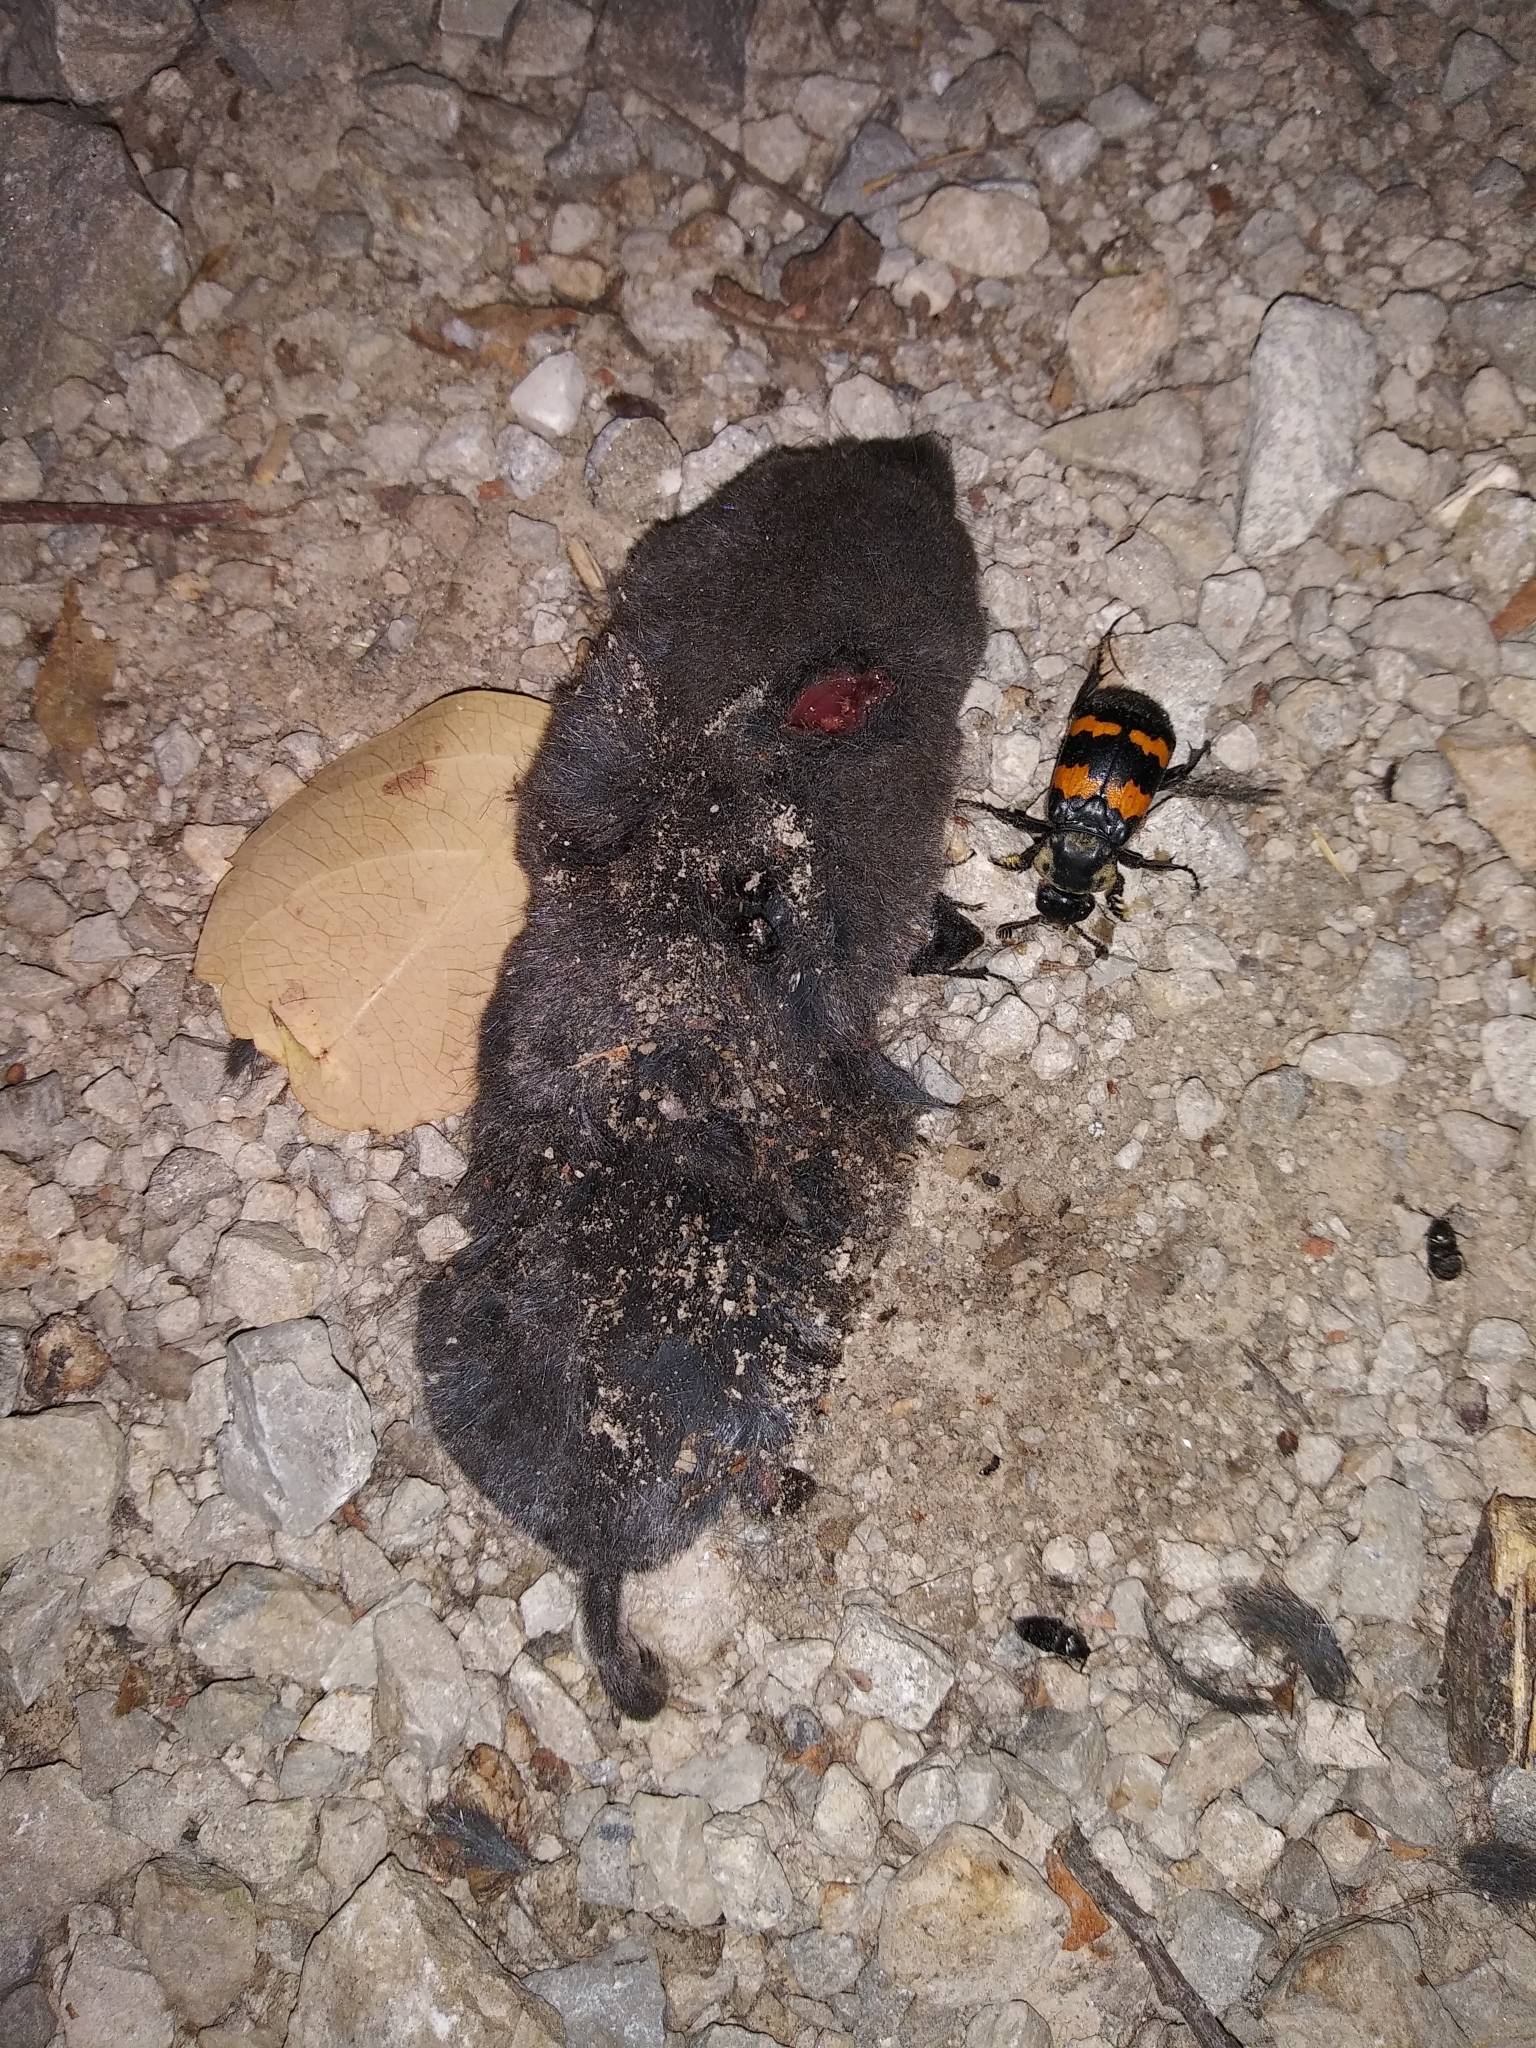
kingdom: Animalia
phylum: Arthropoda
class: Insecta
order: Coleoptera
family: Staphylinidae
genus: Nicrophorus
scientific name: Nicrophorus tomentosus
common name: Tomentose burying beetle
